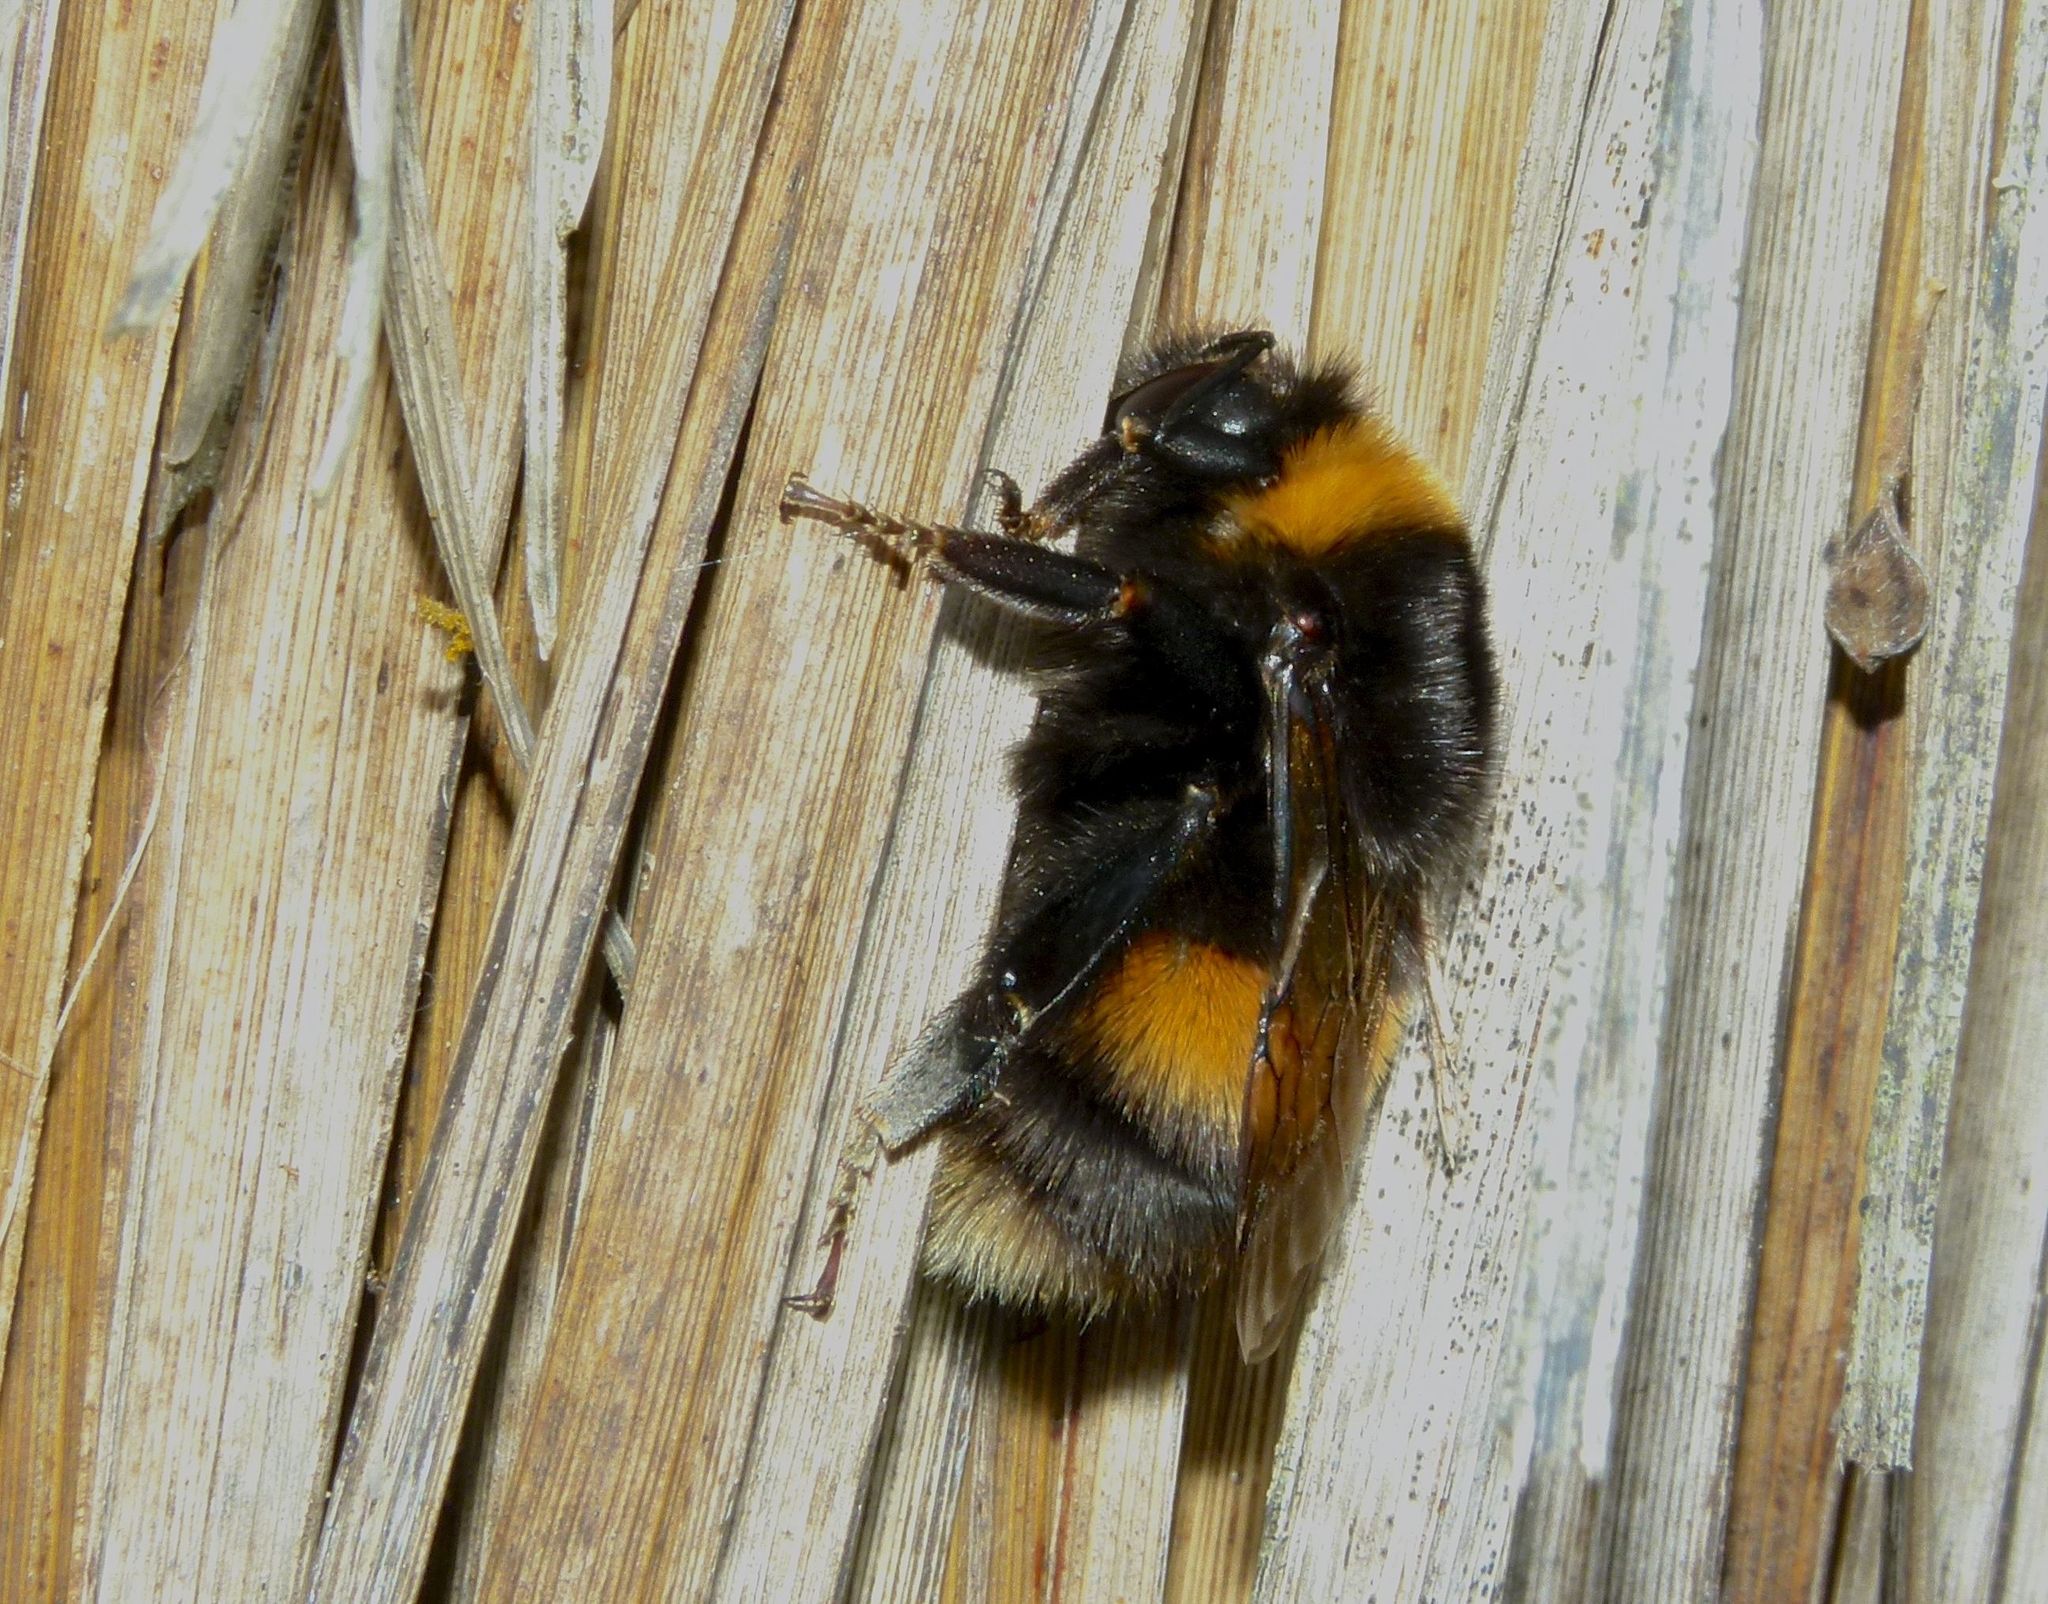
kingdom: Animalia
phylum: Arthropoda
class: Insecta
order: Hymenoptera
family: Apidae
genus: Bombus
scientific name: Bombus terrestris
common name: Buff-tailed bumblebee
